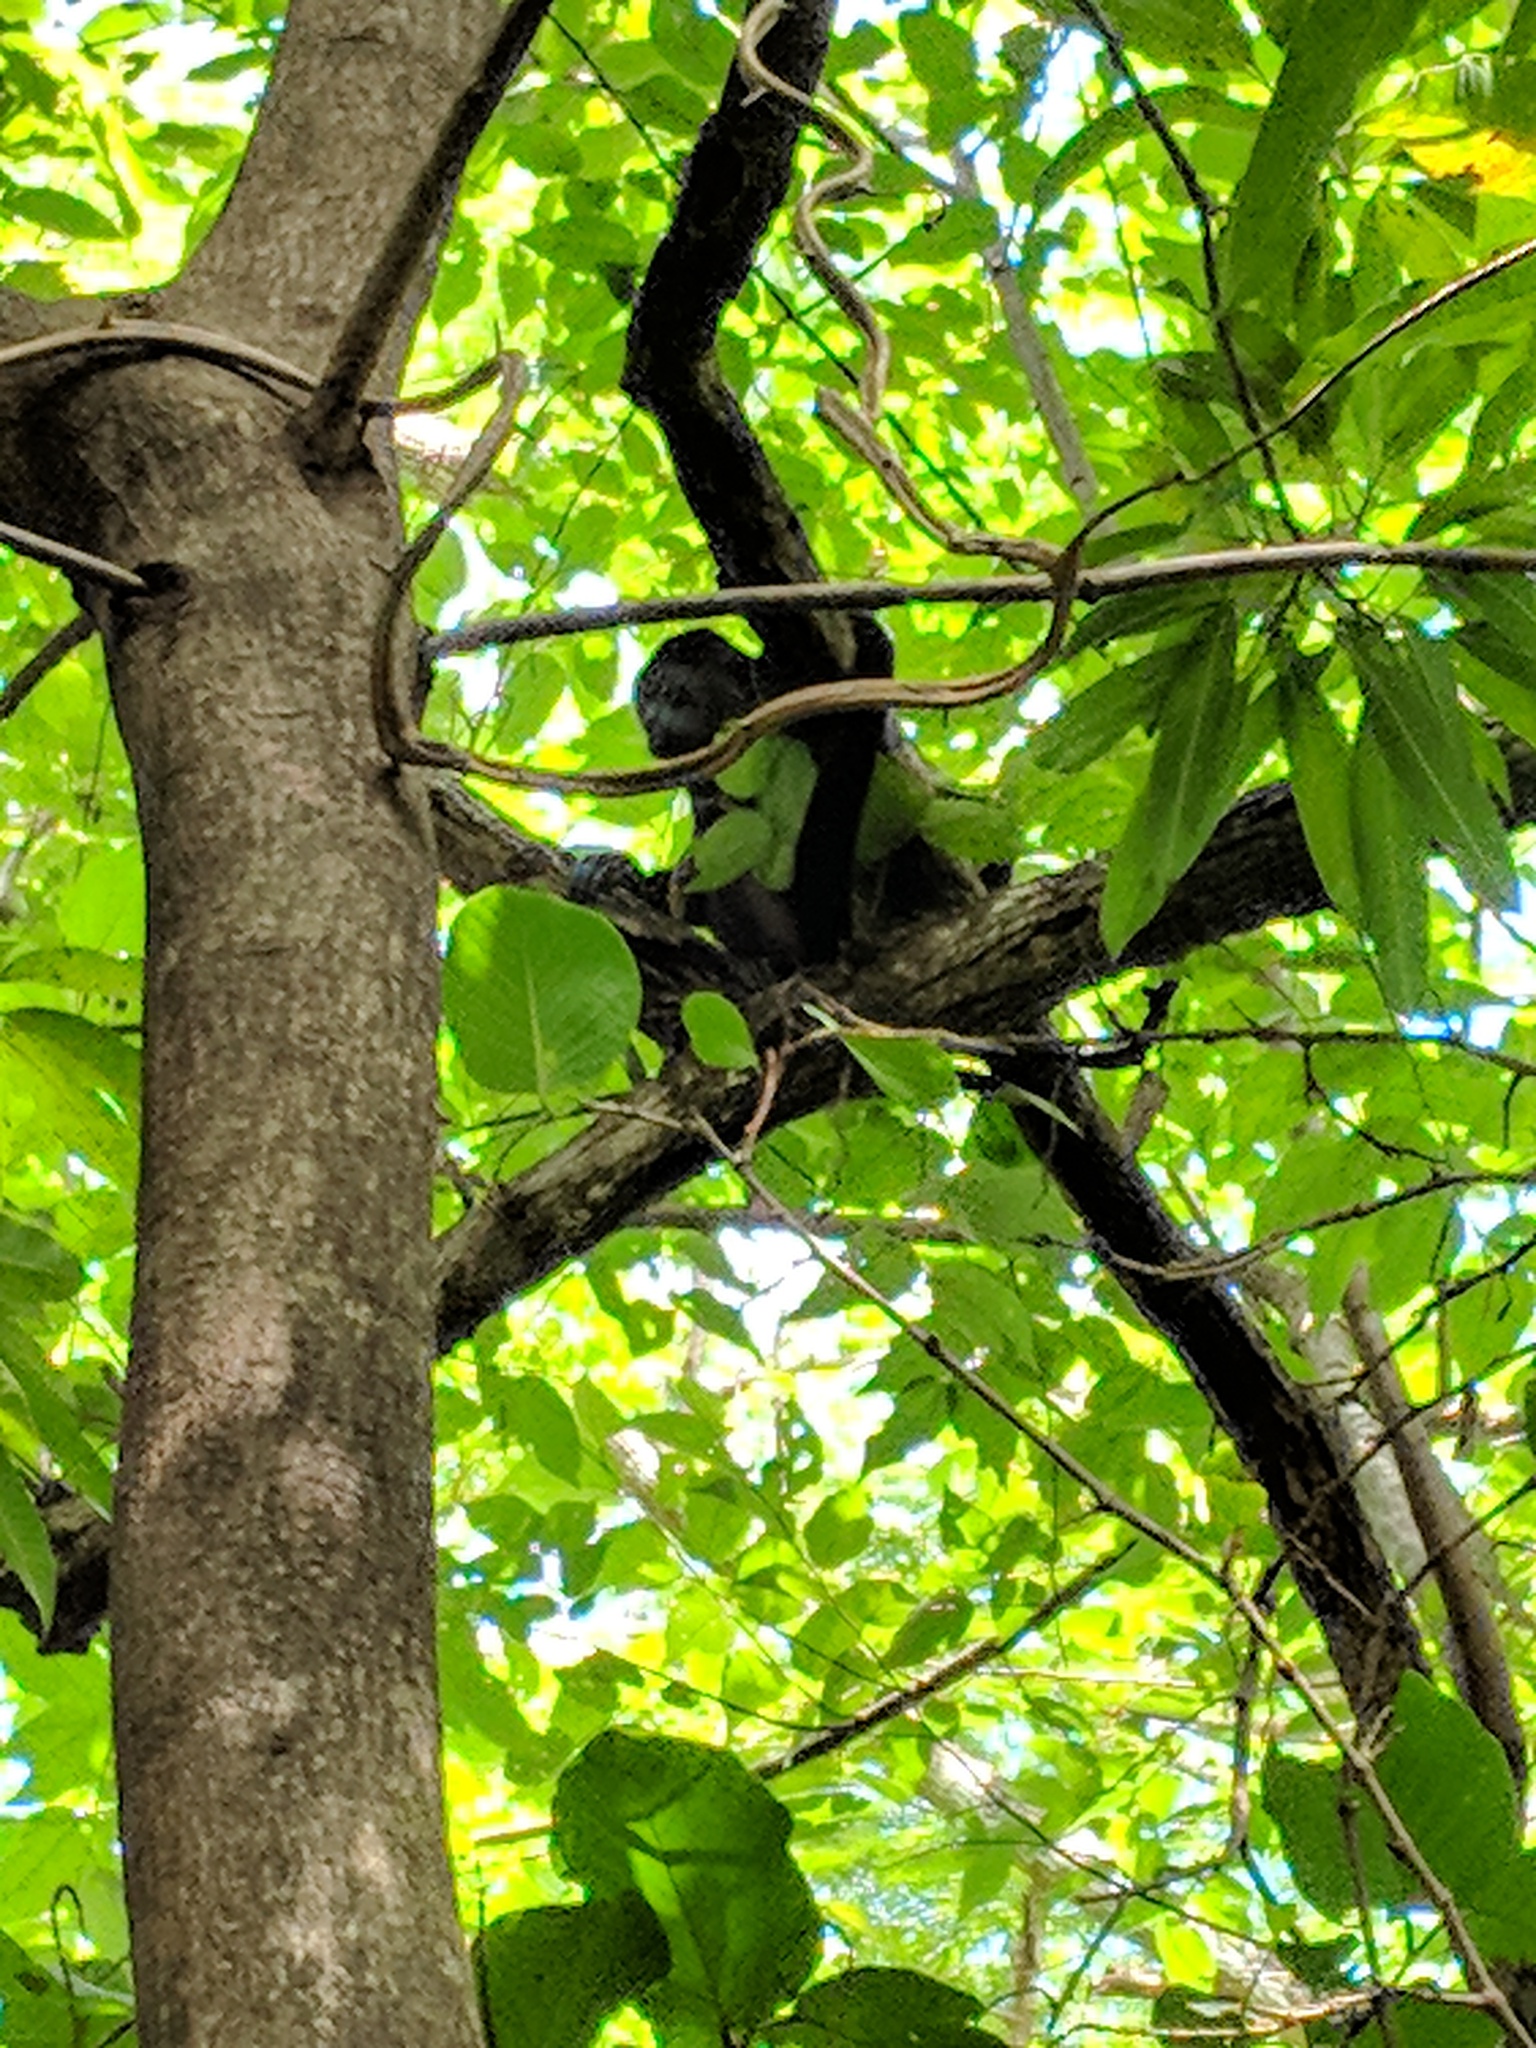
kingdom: Animalia
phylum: Chordata
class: Mammalia
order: Primates
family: Atelidae
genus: Alouatta
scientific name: Alouatta palliata
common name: Mantled howler
